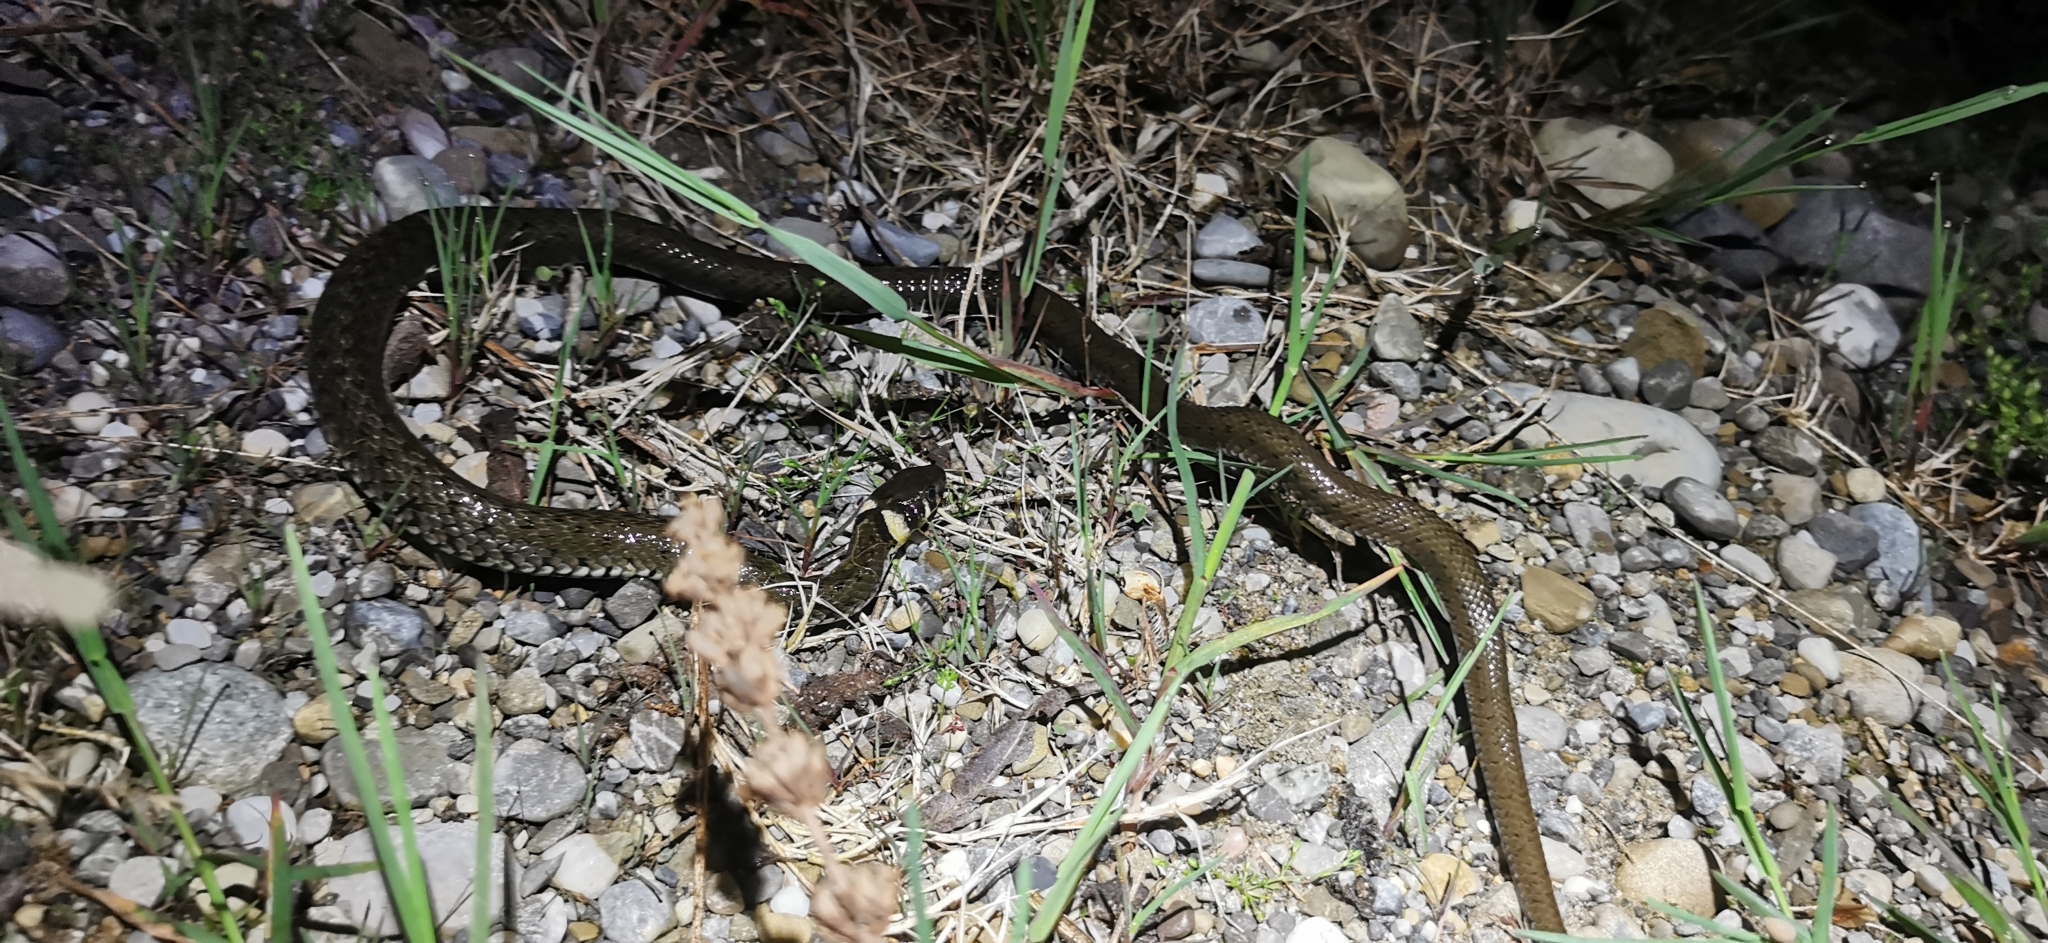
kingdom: Animalia
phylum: Chordata
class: Squamata
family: Colubridae
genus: Natrix
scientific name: Natrix natrix
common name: Grass snake
